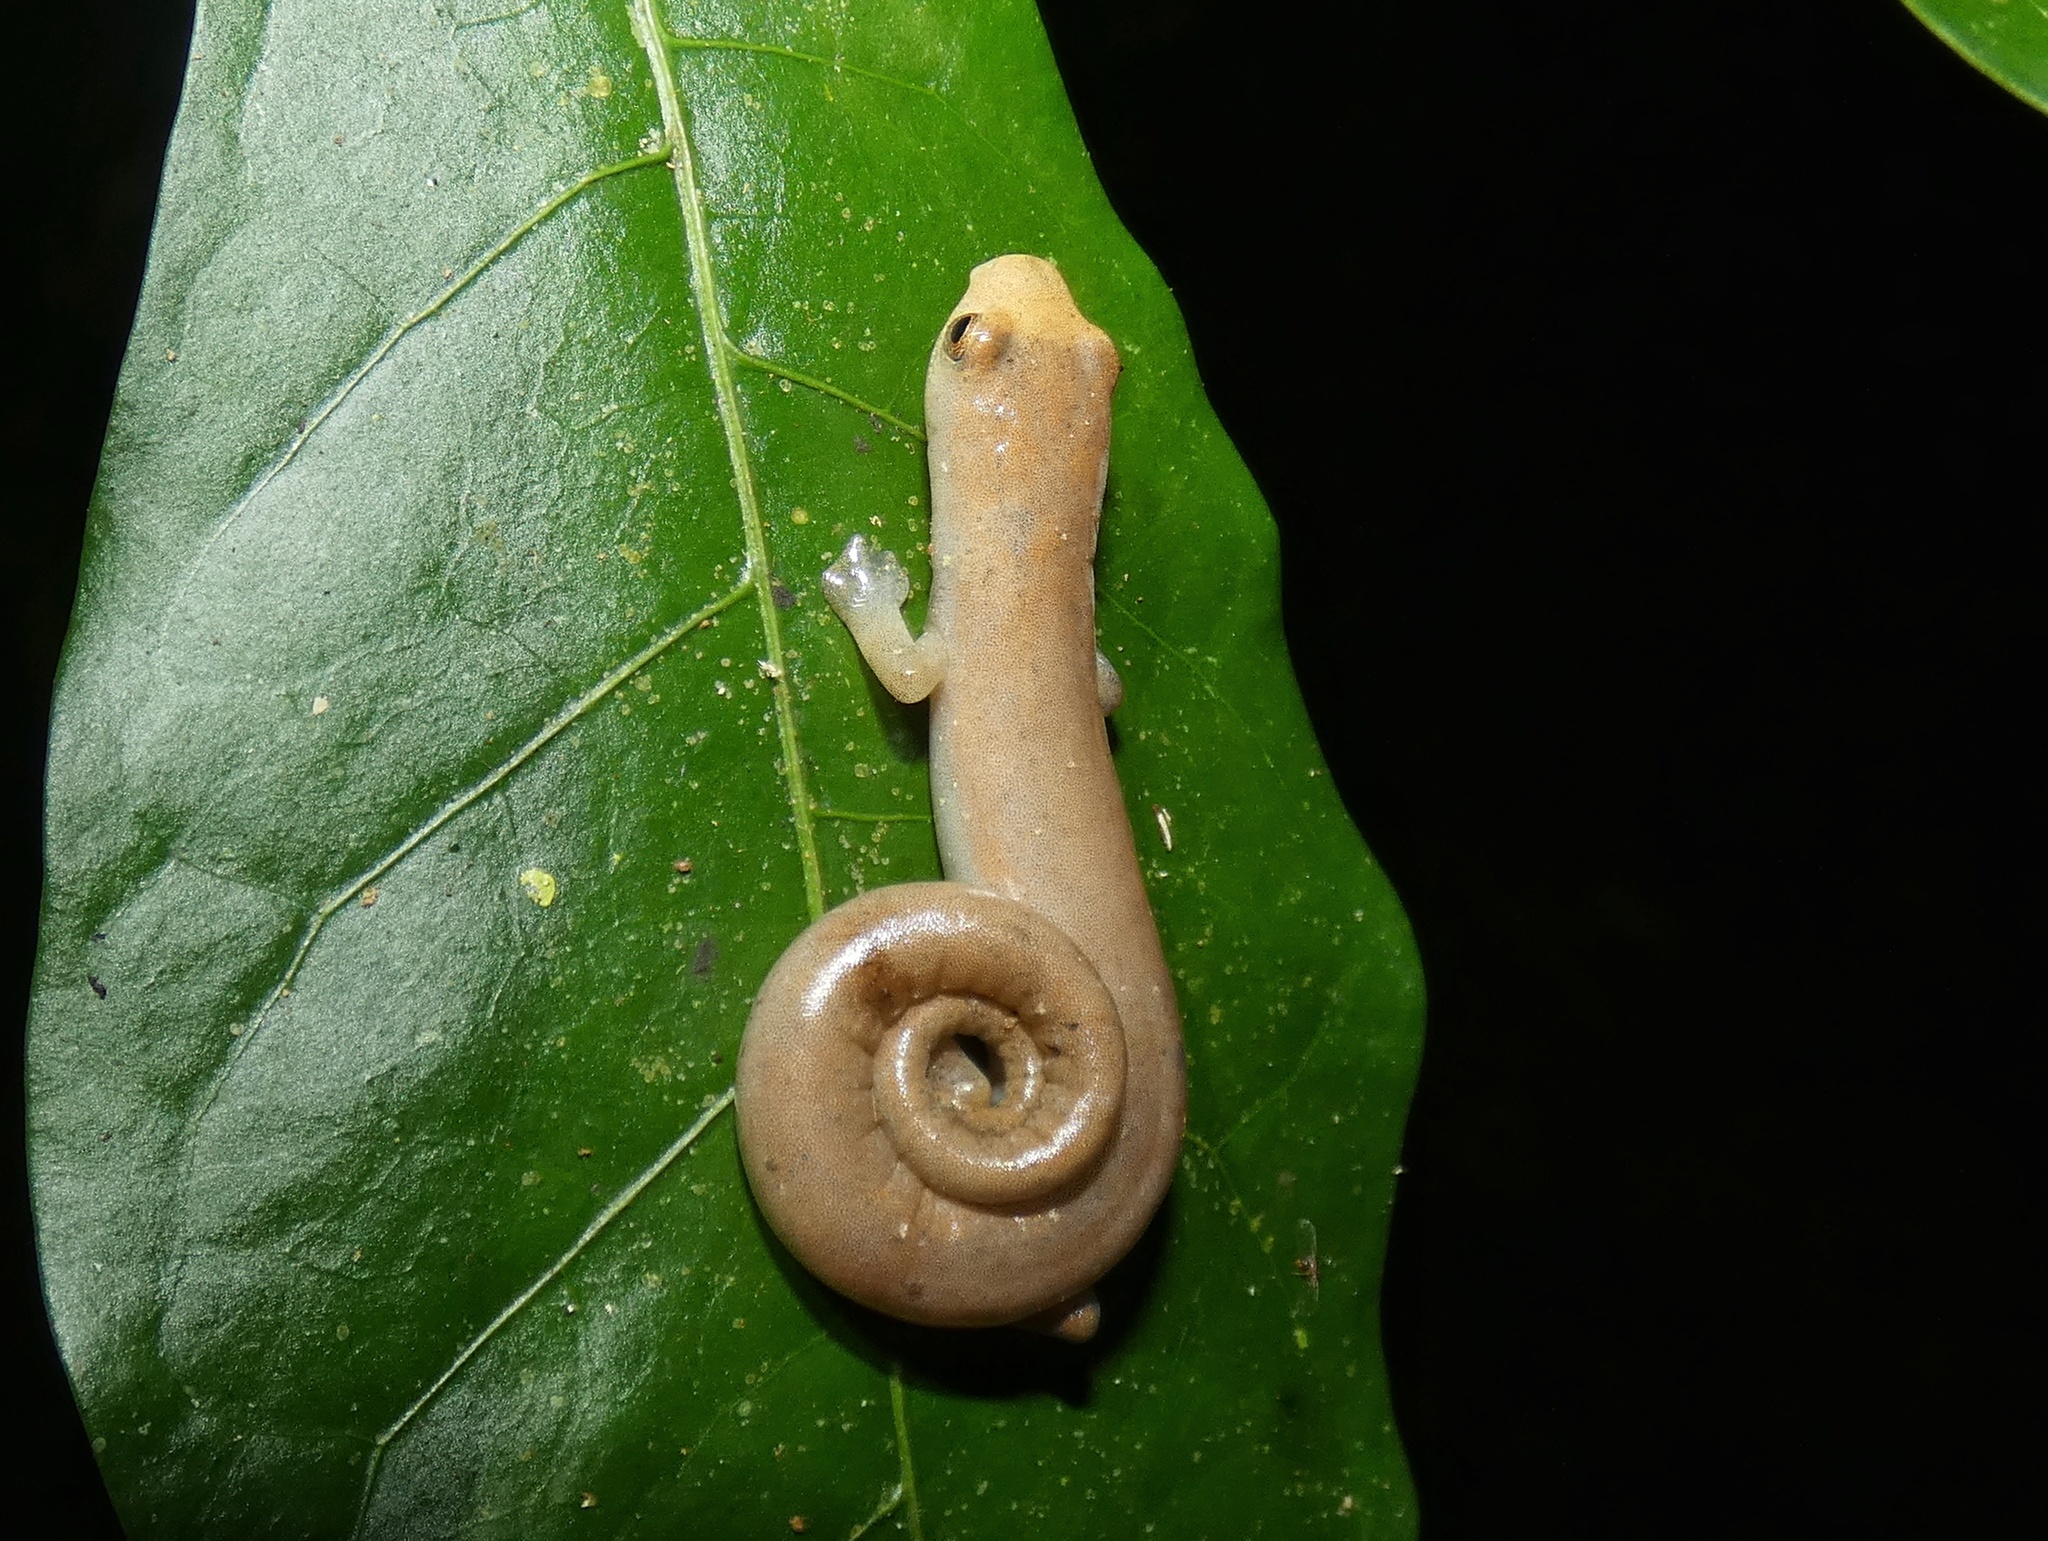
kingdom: Animalia
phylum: Chordata
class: Amphibia
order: Caudata
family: Plethodontidae
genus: Bolitoglossa
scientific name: Bolitoglossa cuna
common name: Camp sasardi salamander
